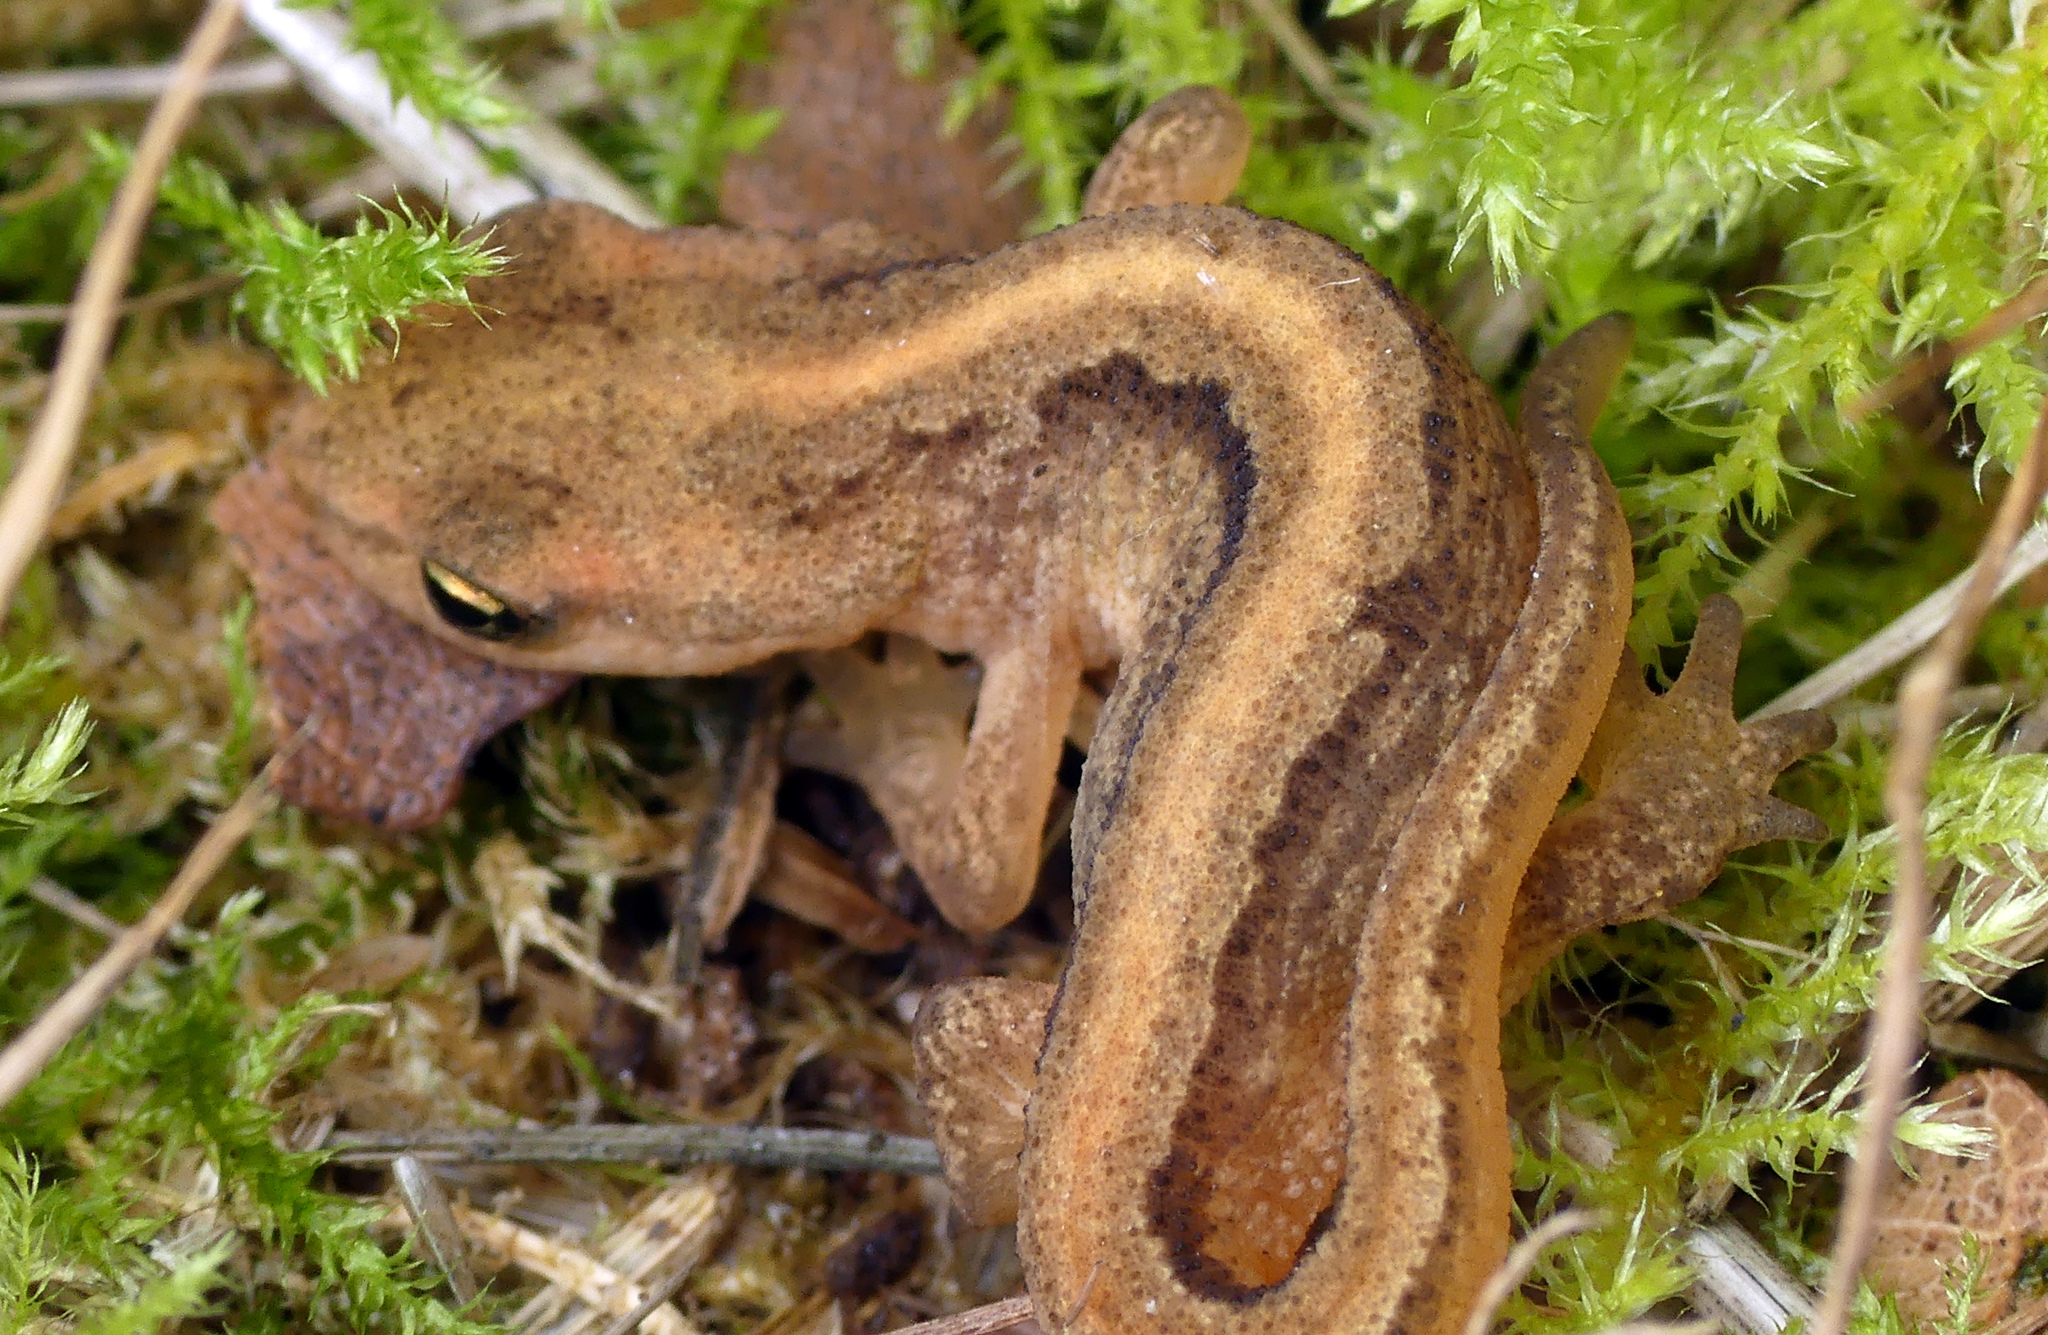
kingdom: Animalia
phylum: Chordata
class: Amphibia
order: Caudata
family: Salamandridae
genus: Lissotriton
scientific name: Lissotriton vulgaris
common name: Smooth newt
